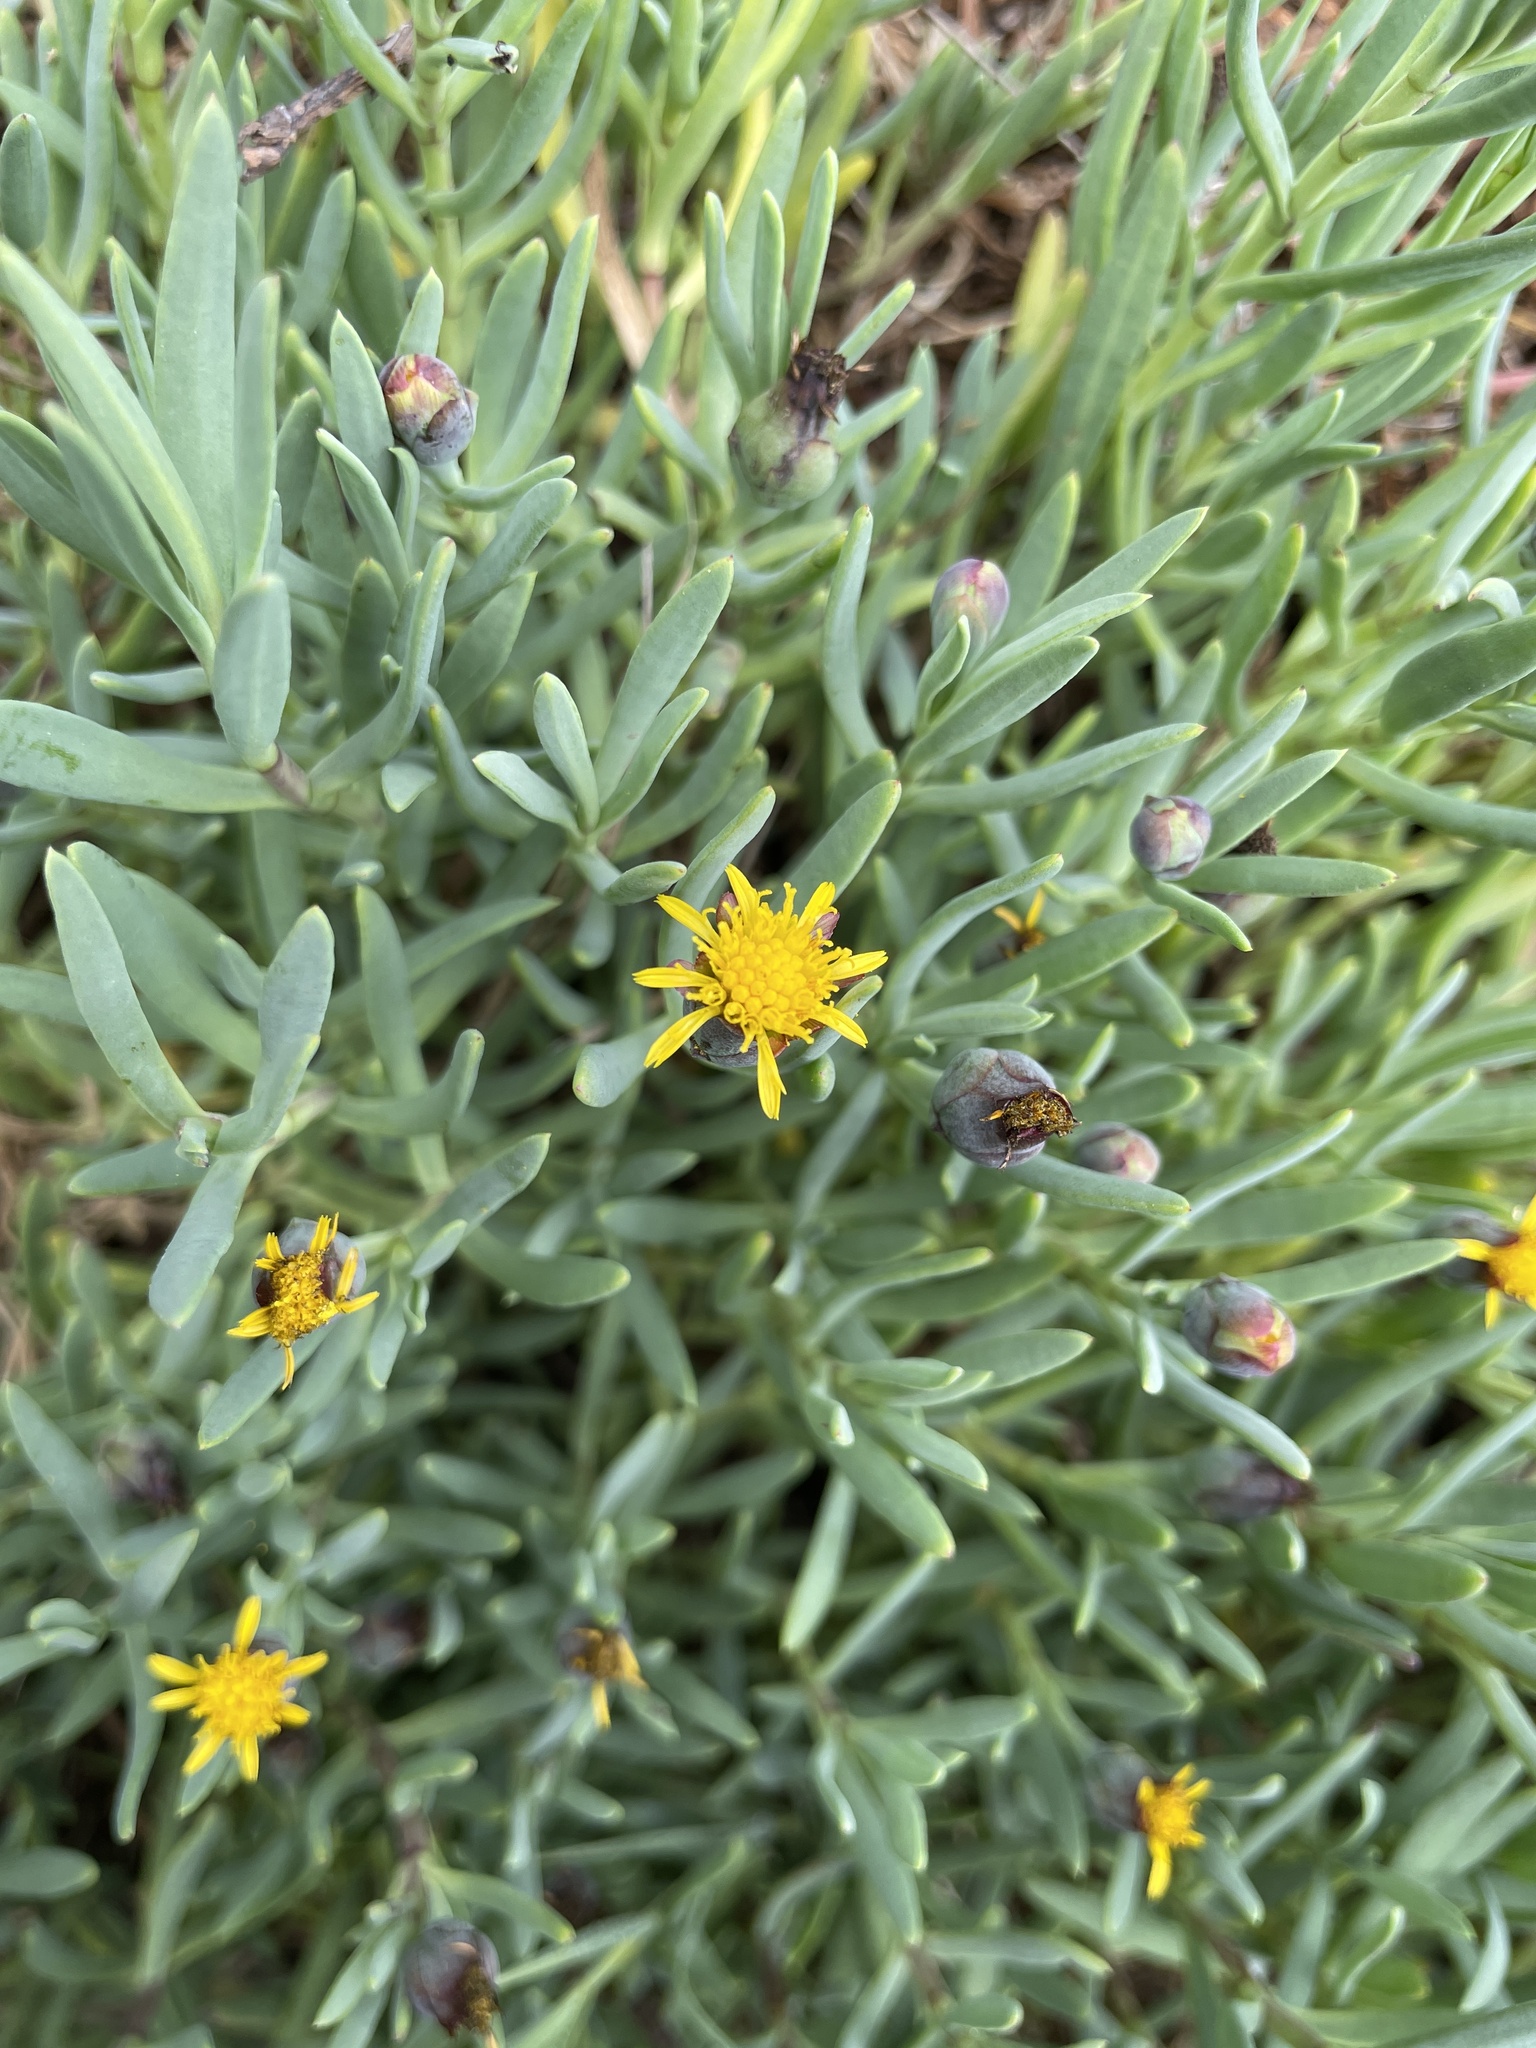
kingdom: Plantae
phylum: Tracheophyta
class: Magnoliopsida
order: Asterales
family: Asteraceae
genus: Jaumea
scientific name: Jaumea carnosa
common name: Fleshy jaumea
